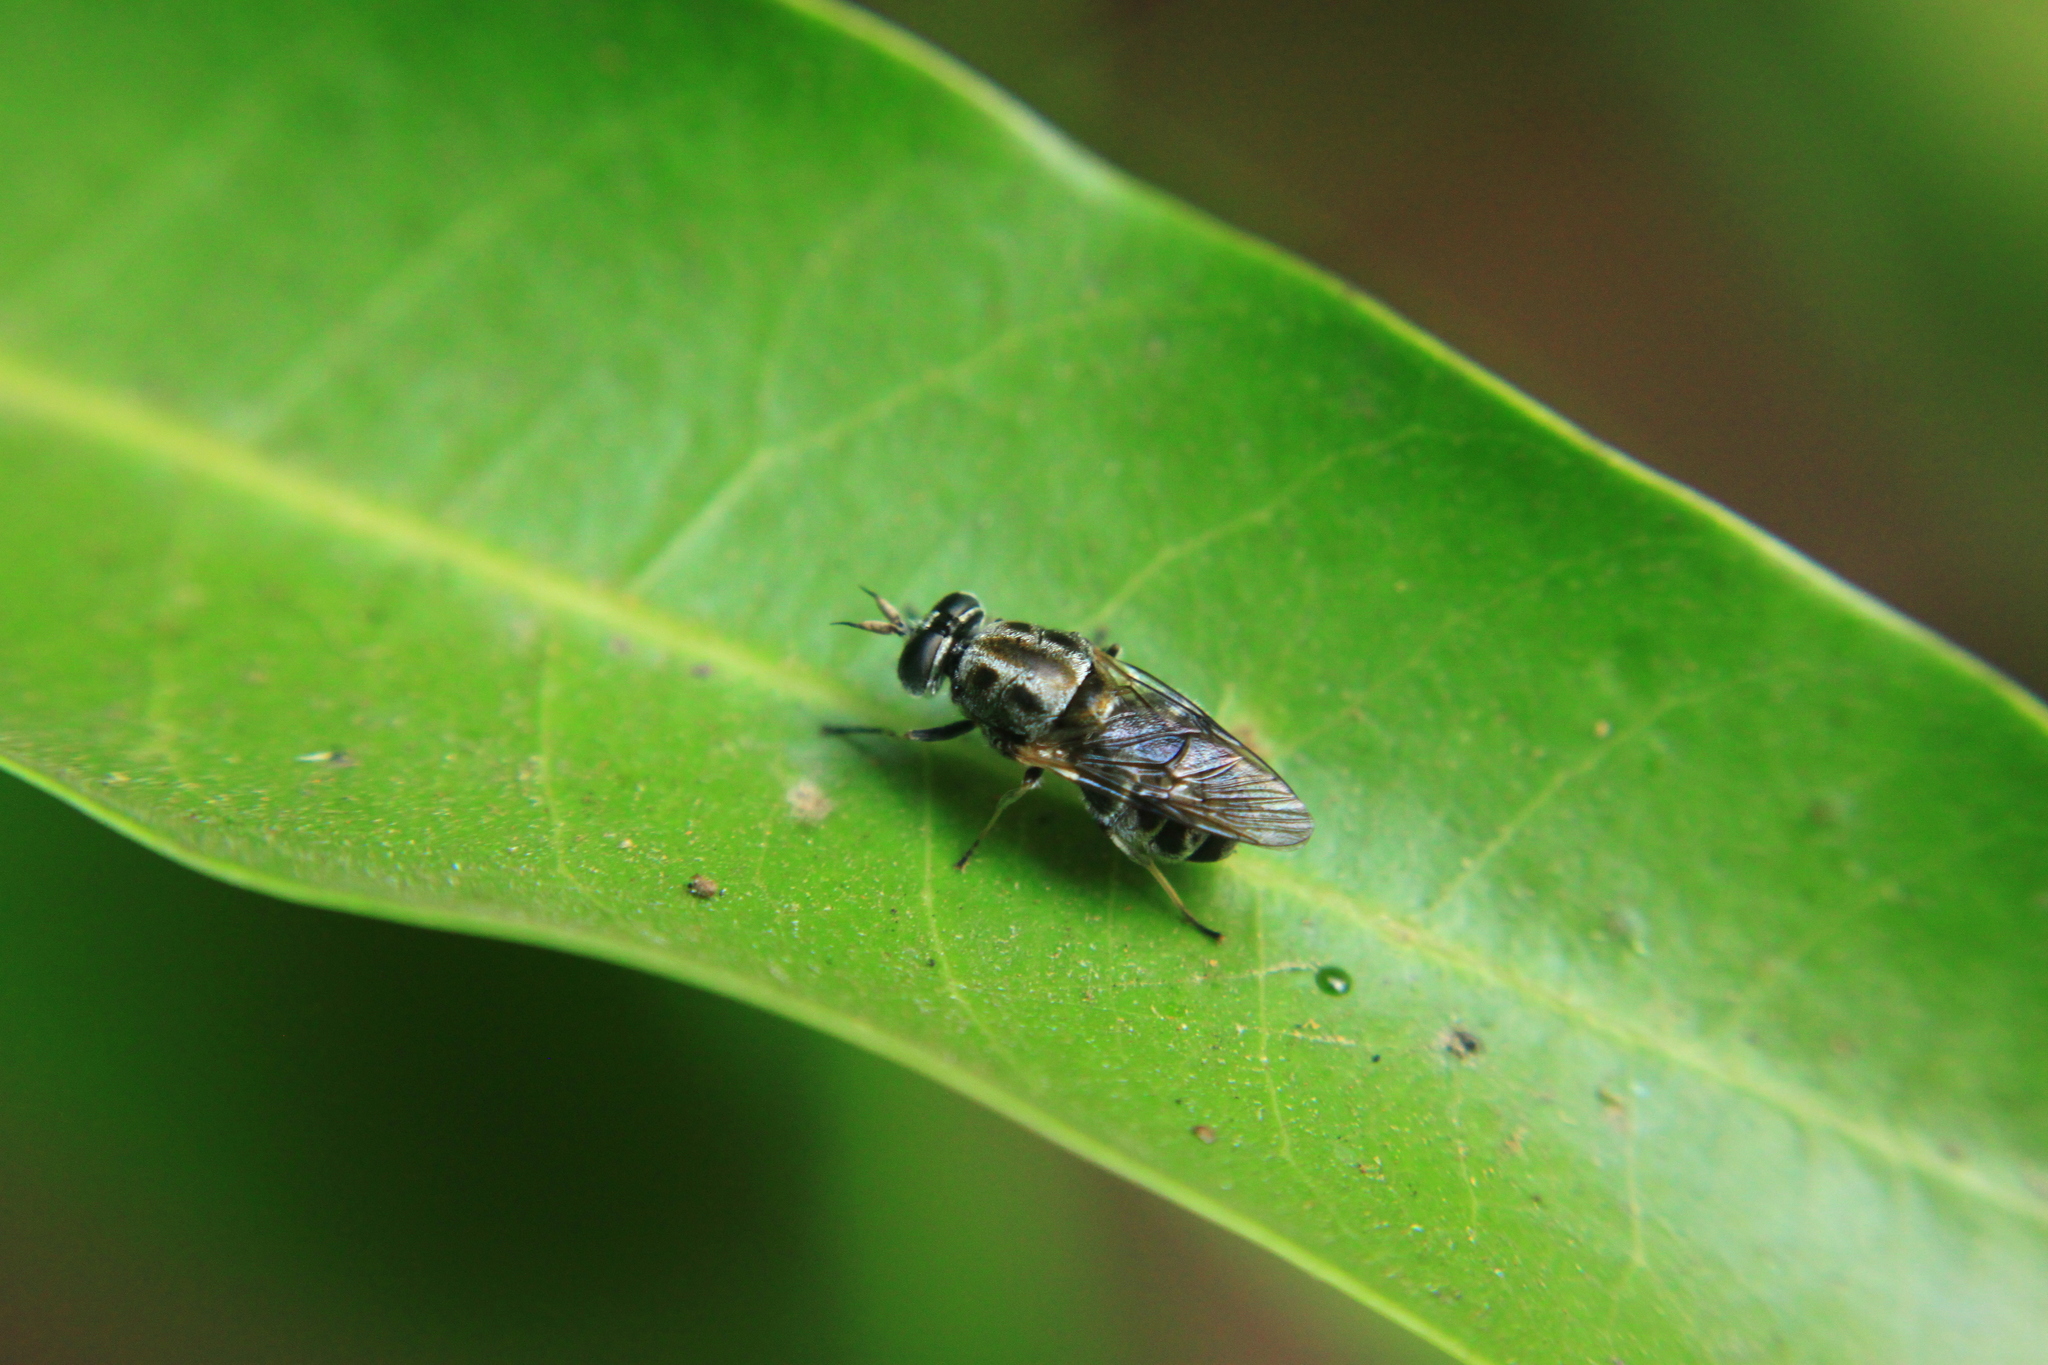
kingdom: Animalia
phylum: Arthropoda
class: Insecta
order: Diptera
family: Stratiomyidae
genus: Adoxomyia
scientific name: Adoxomyia heminopla
